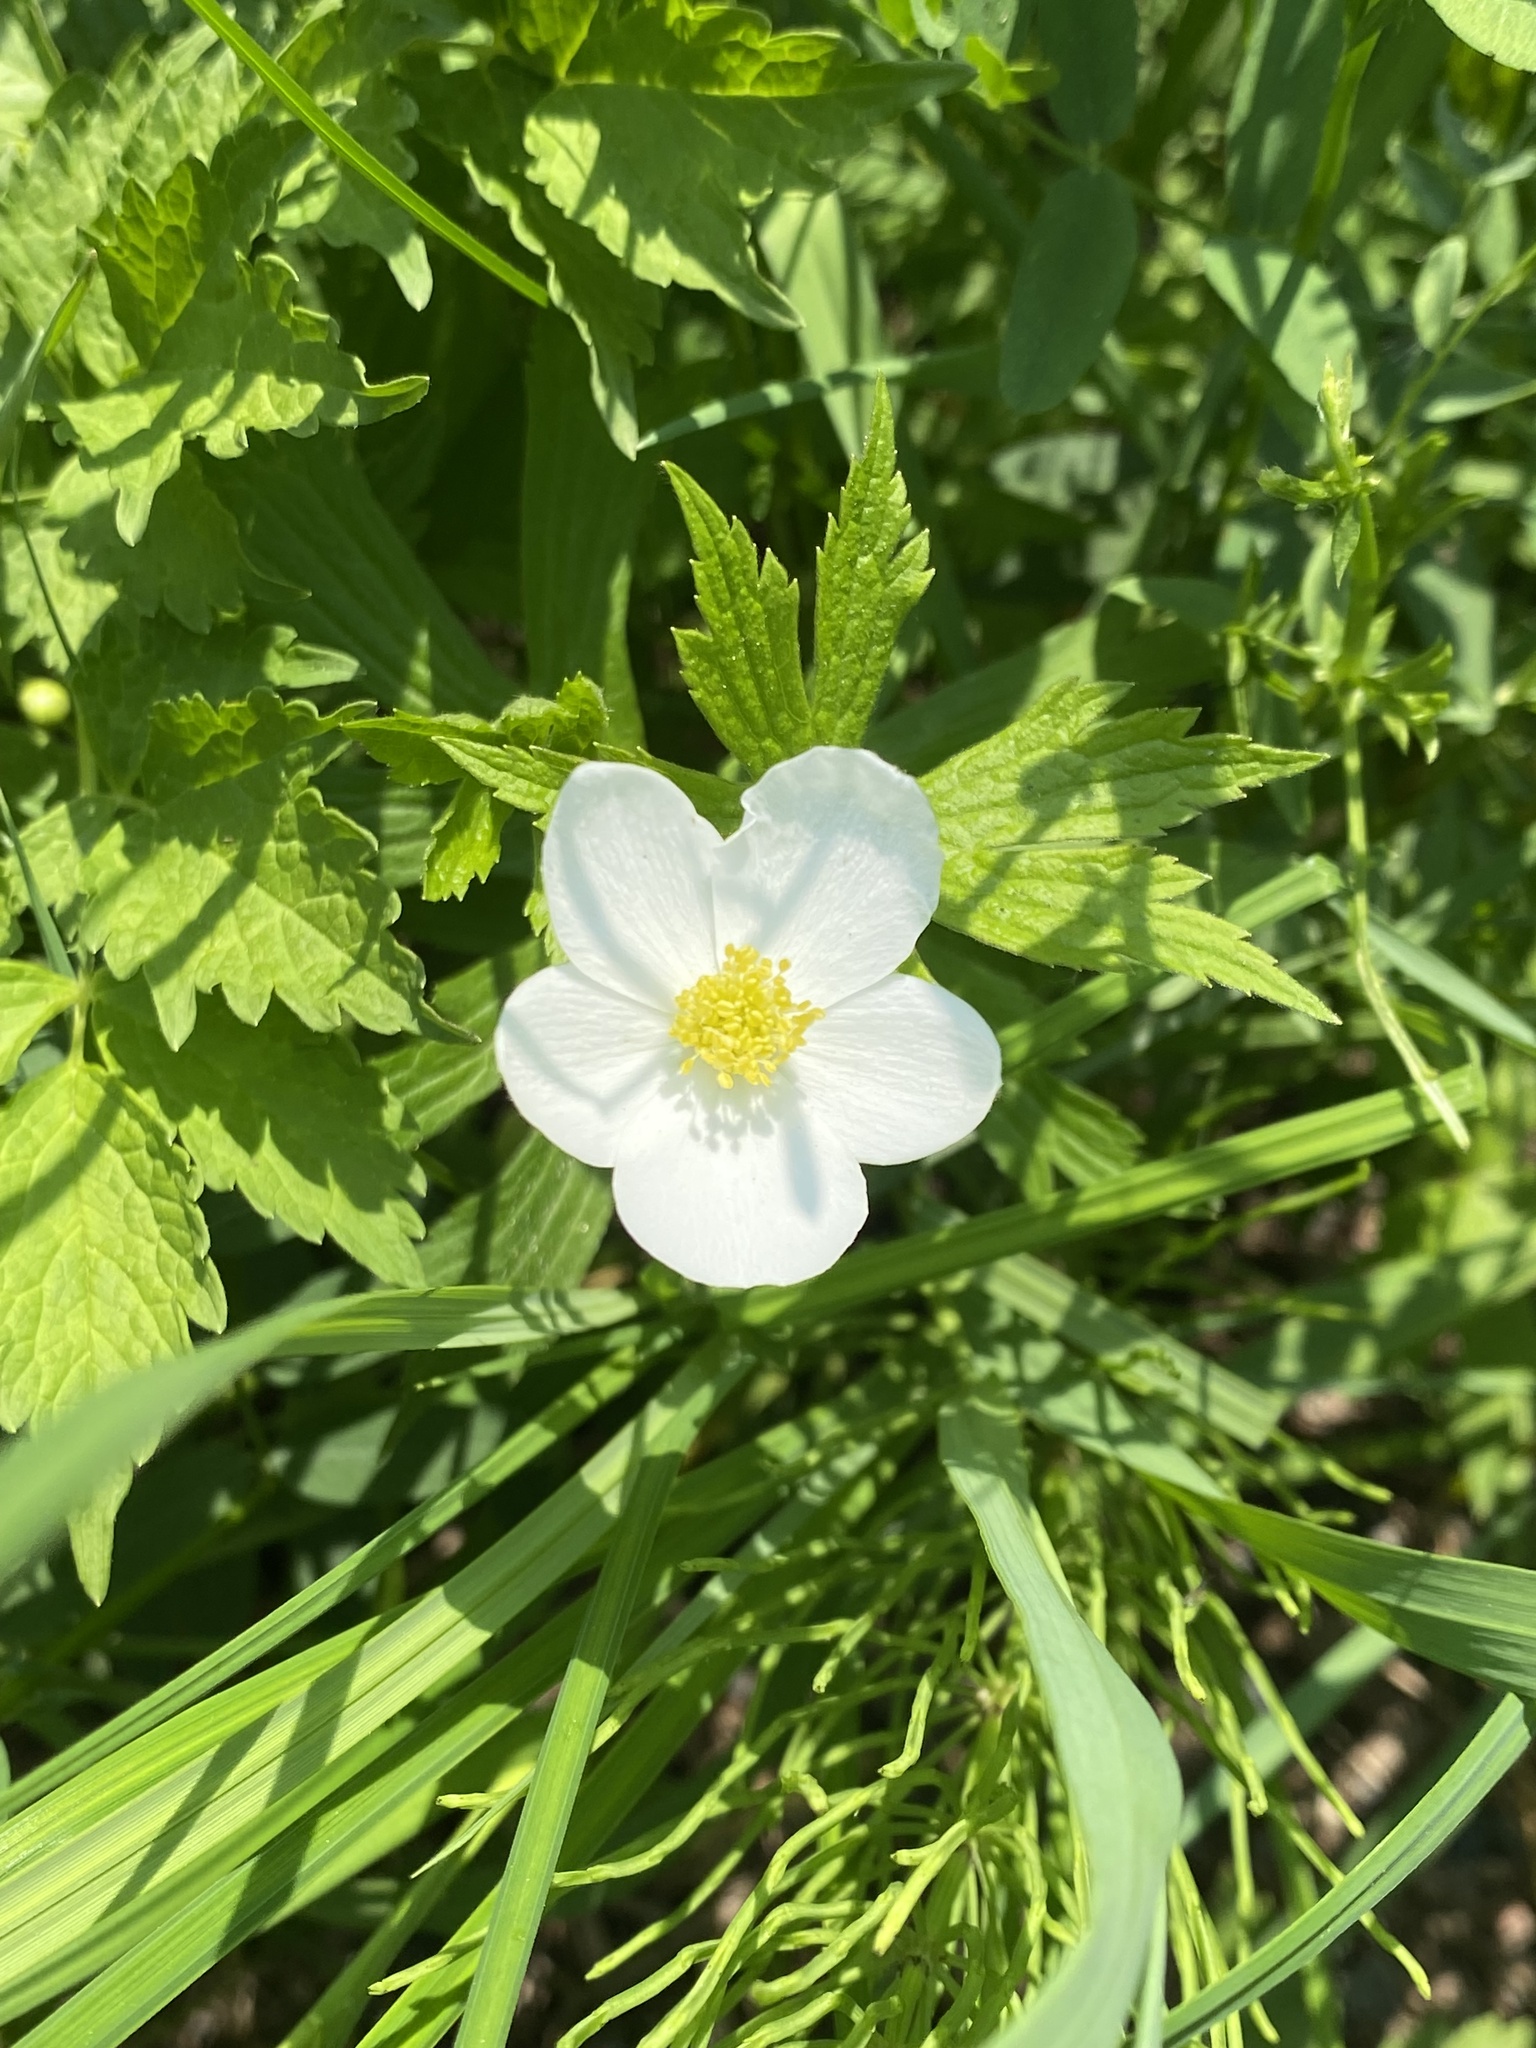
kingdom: Plantae
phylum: Tracheophyta
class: Magnoliopsida
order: Ranunculales
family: Ranunculaceae
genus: Anemonastrum
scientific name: Anemonastrum canadense
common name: Canada anemone
